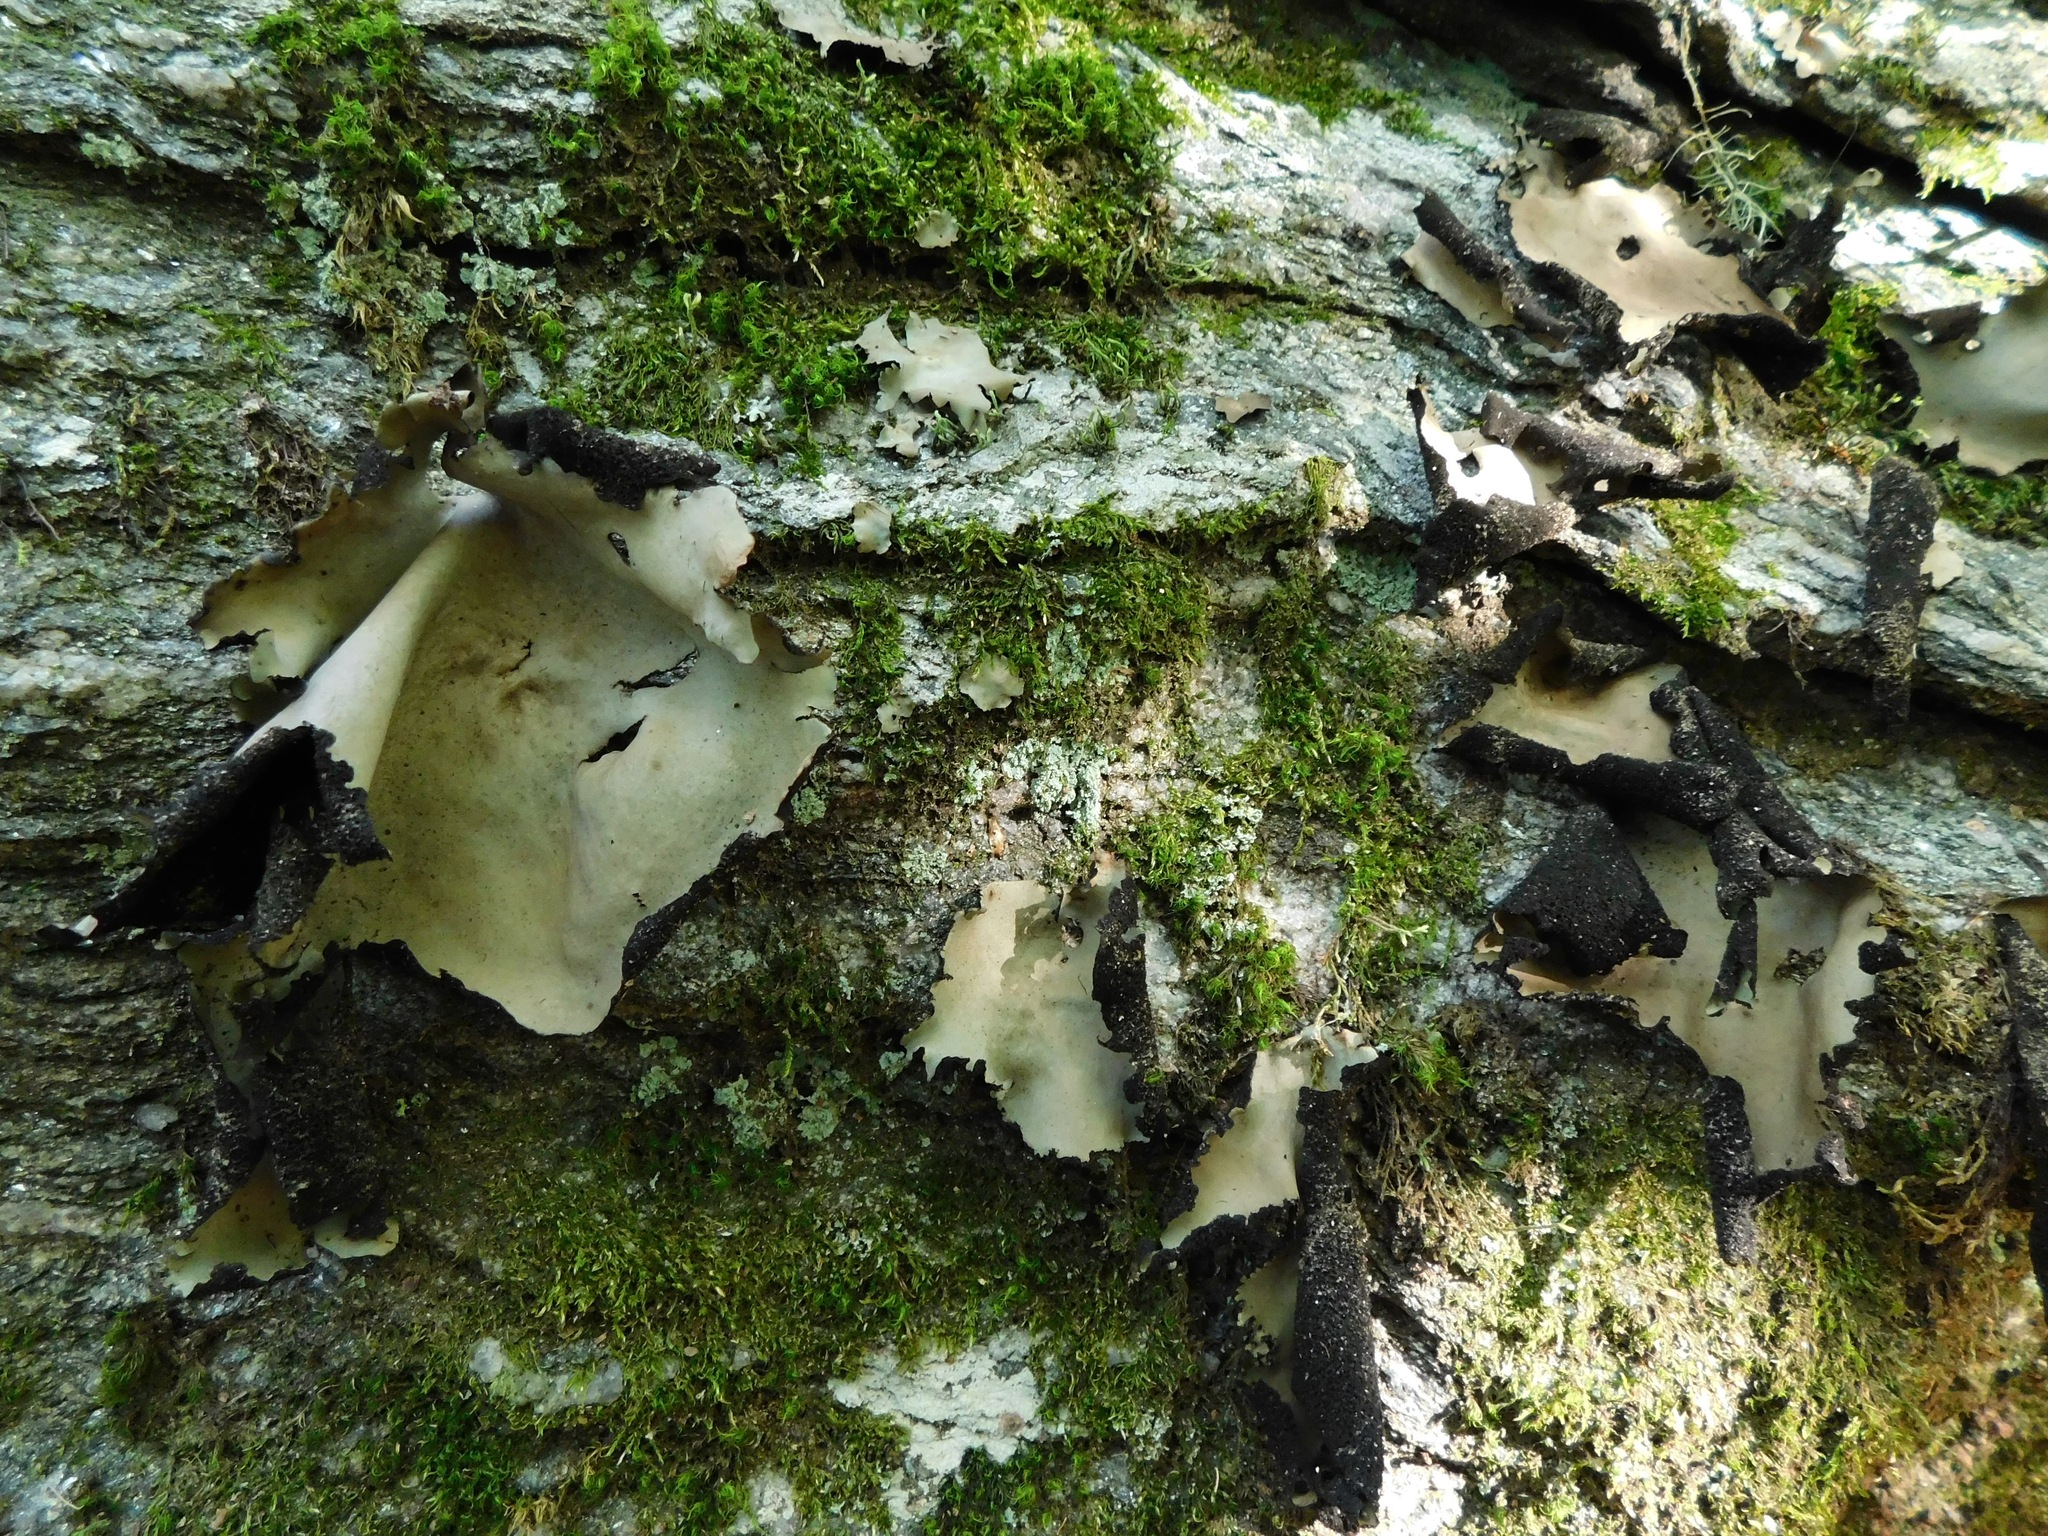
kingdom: Fungi
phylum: Ascomycota
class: Lecanoromycetes
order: Umbilicariales
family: Umbilicariaceae
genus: Umbilicaria
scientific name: Umbilicaria mammulata
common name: Smooth rock tripe
